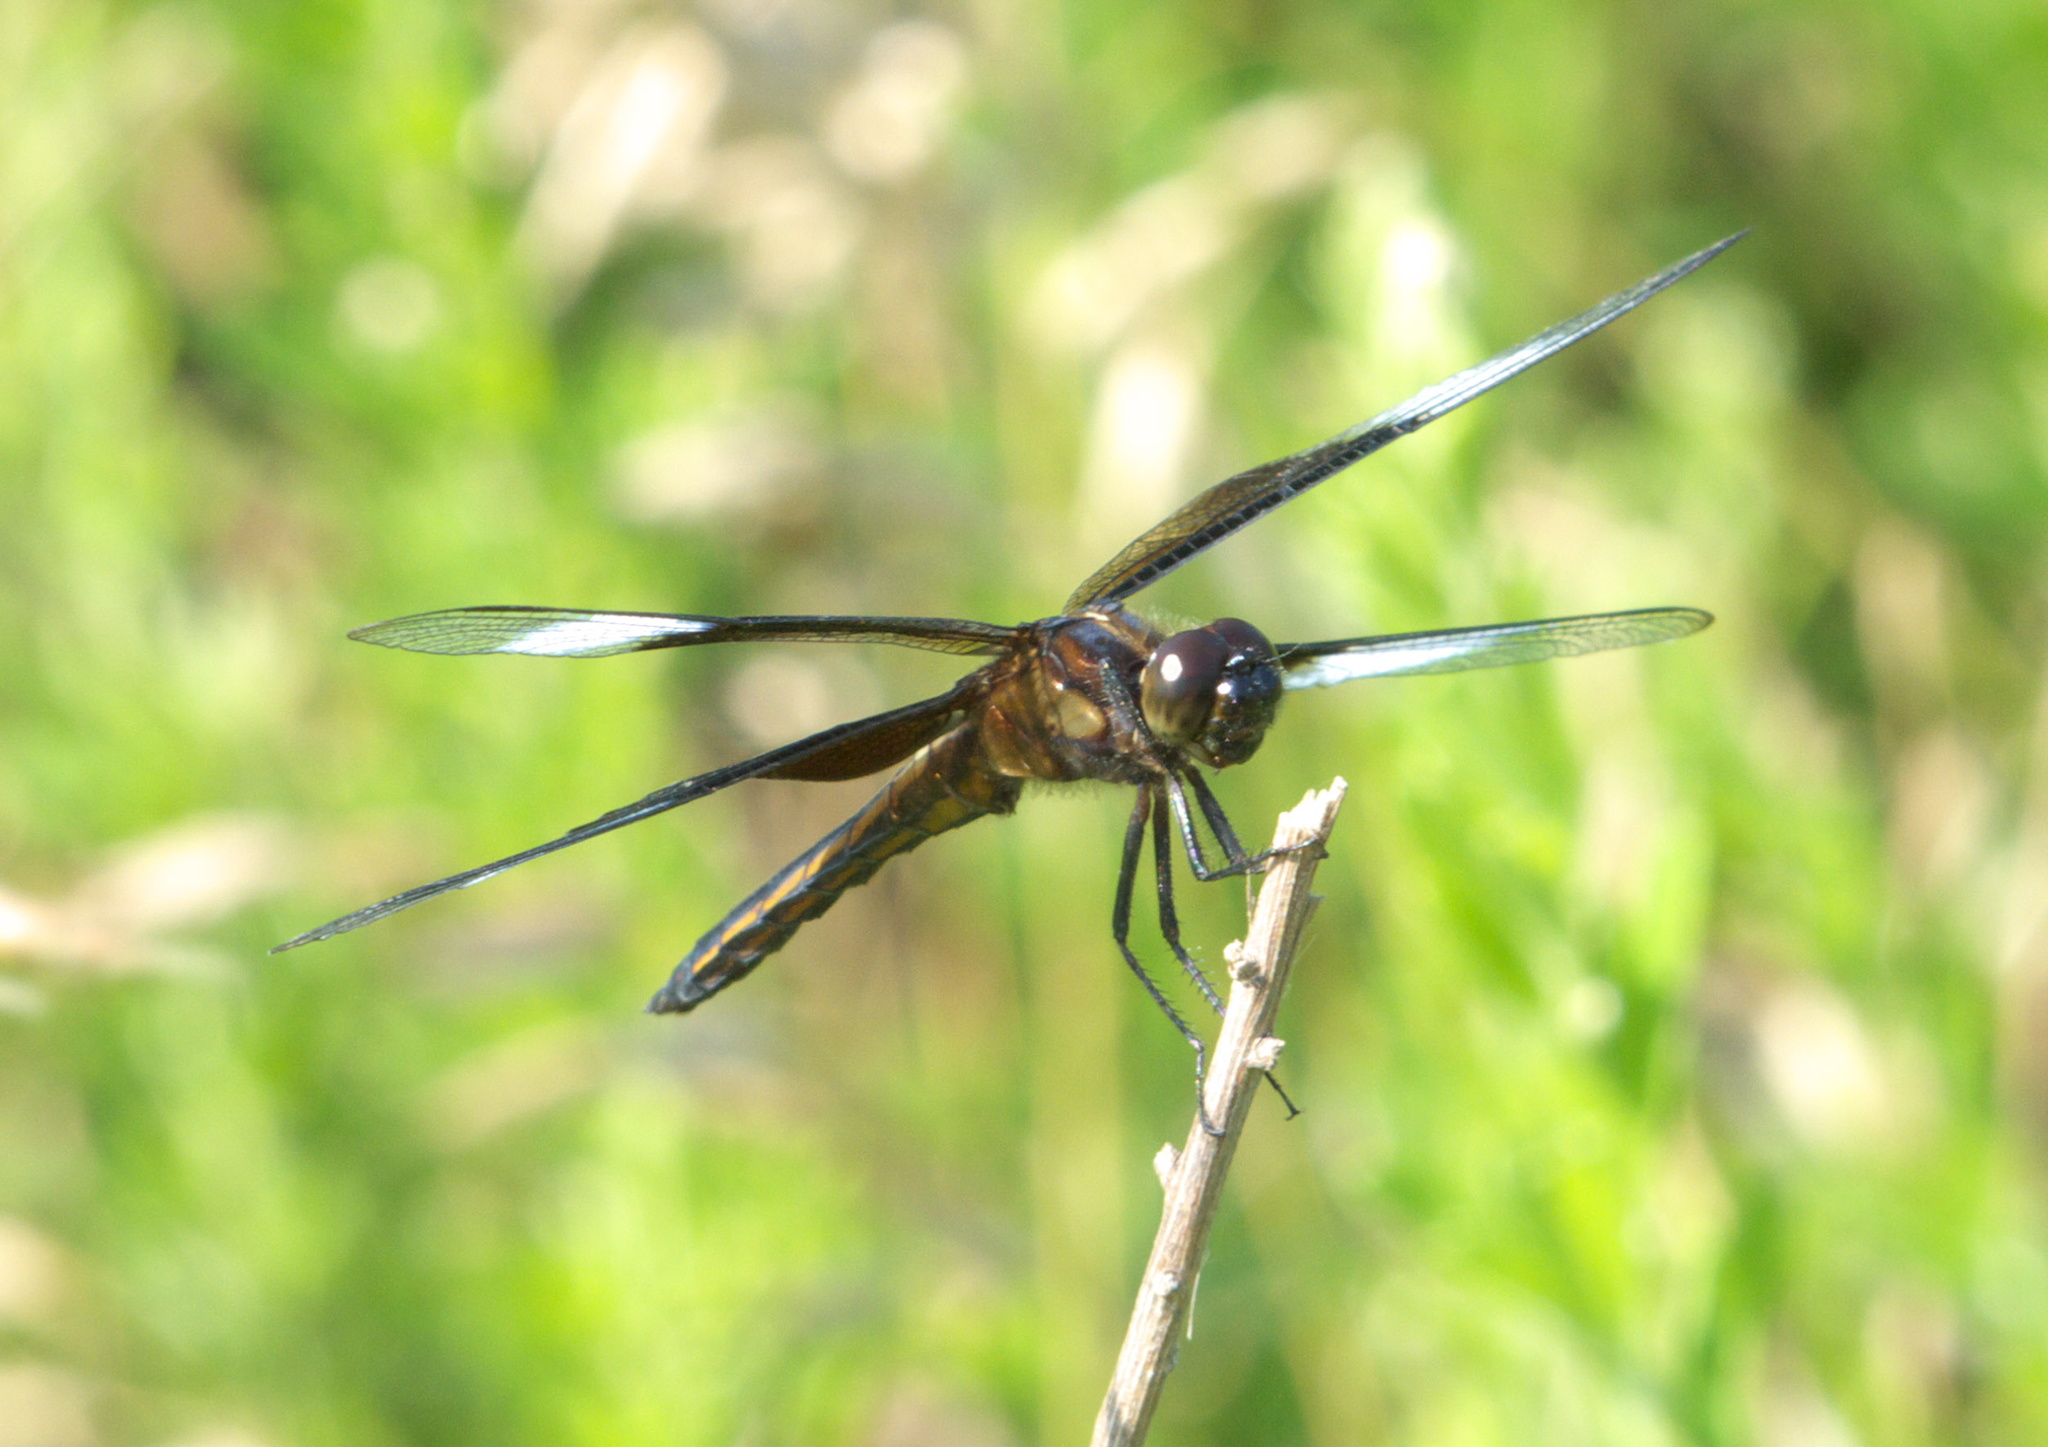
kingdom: Animalia
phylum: Arthropoda
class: Insecta
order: Odonata
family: Libellulidae
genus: Libellula
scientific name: Libellula luctuosa
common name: Widow skimmer
